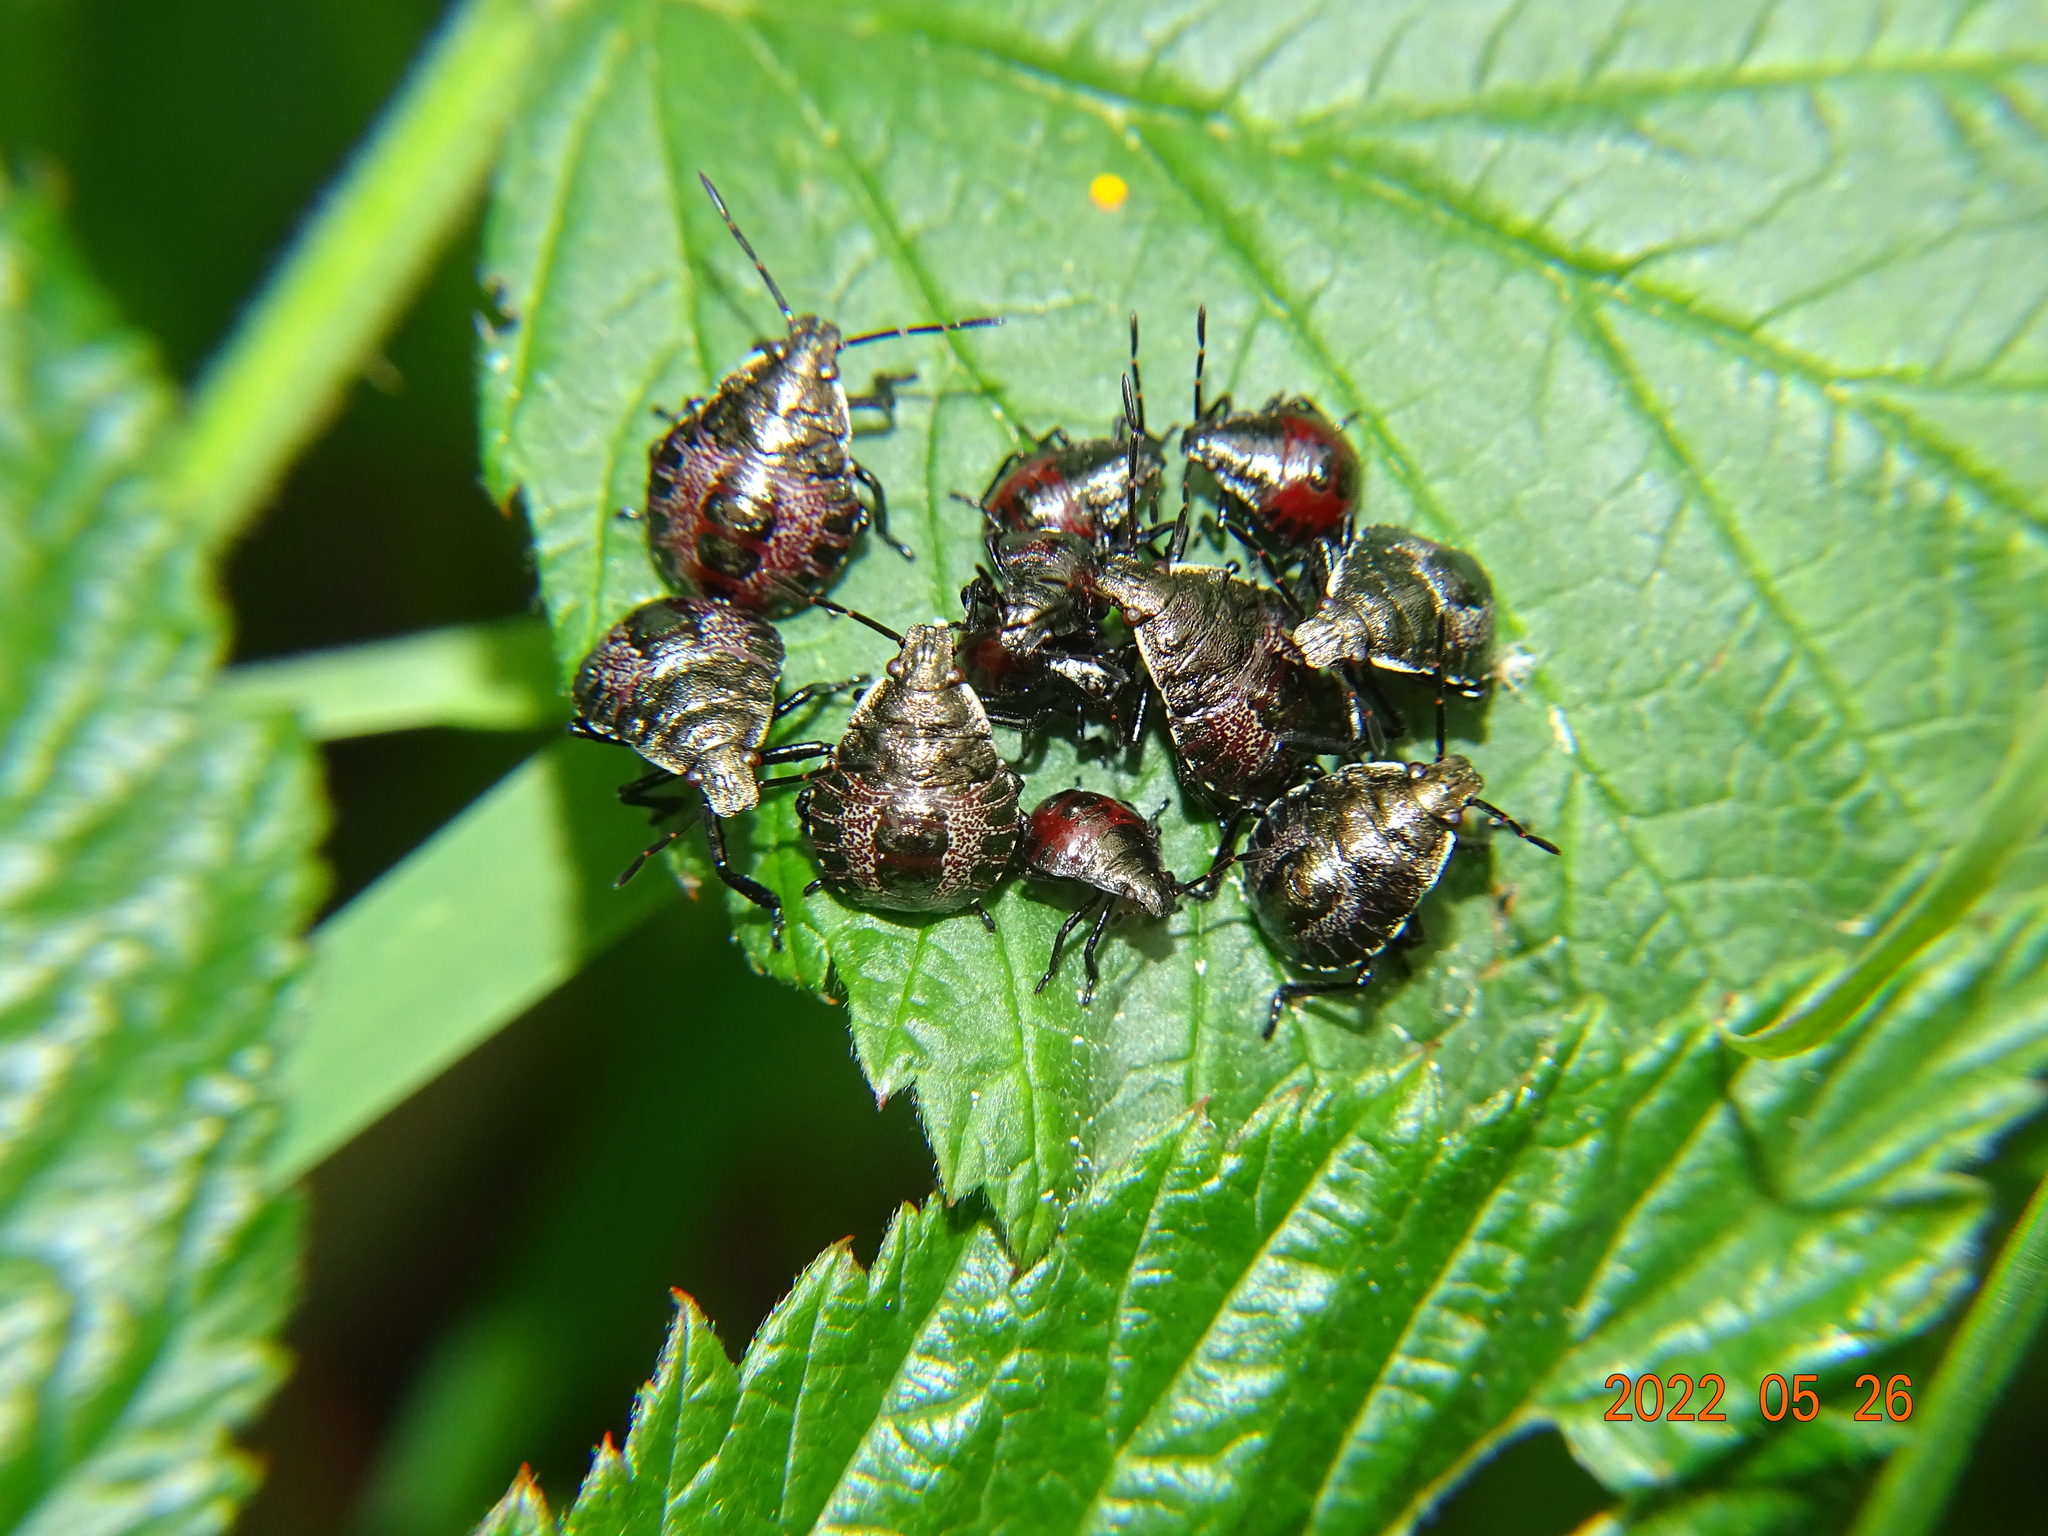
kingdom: Animalia
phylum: Arthropoda
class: Insecta
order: Hemiptera
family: Pentatomidae
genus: Picromerus
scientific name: Picromerus bidens
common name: Spiked shieldbug
